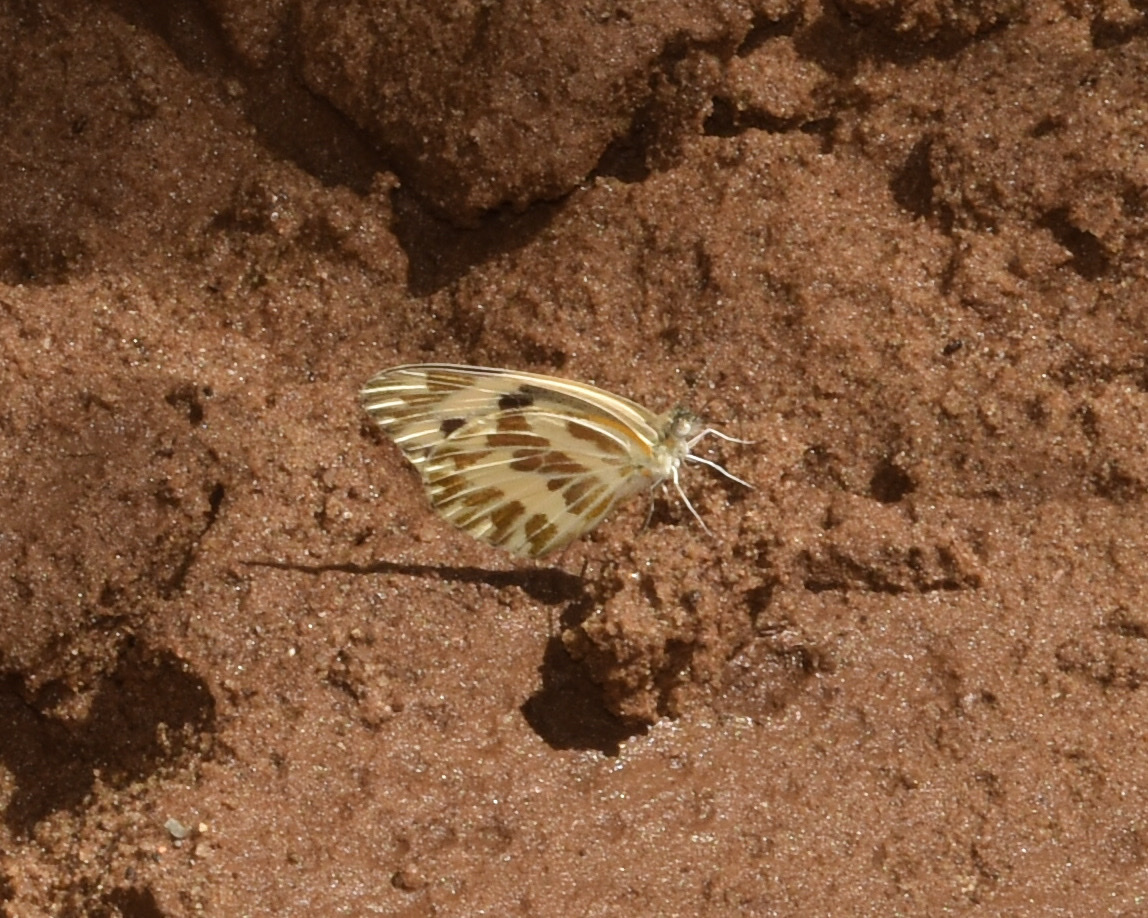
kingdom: Animalia
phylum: Arthropoda
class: Insecta
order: Lepidoptera
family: Pieridae
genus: Pinacopteryx
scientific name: Pinacopteryx eriphia
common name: Zebra white
